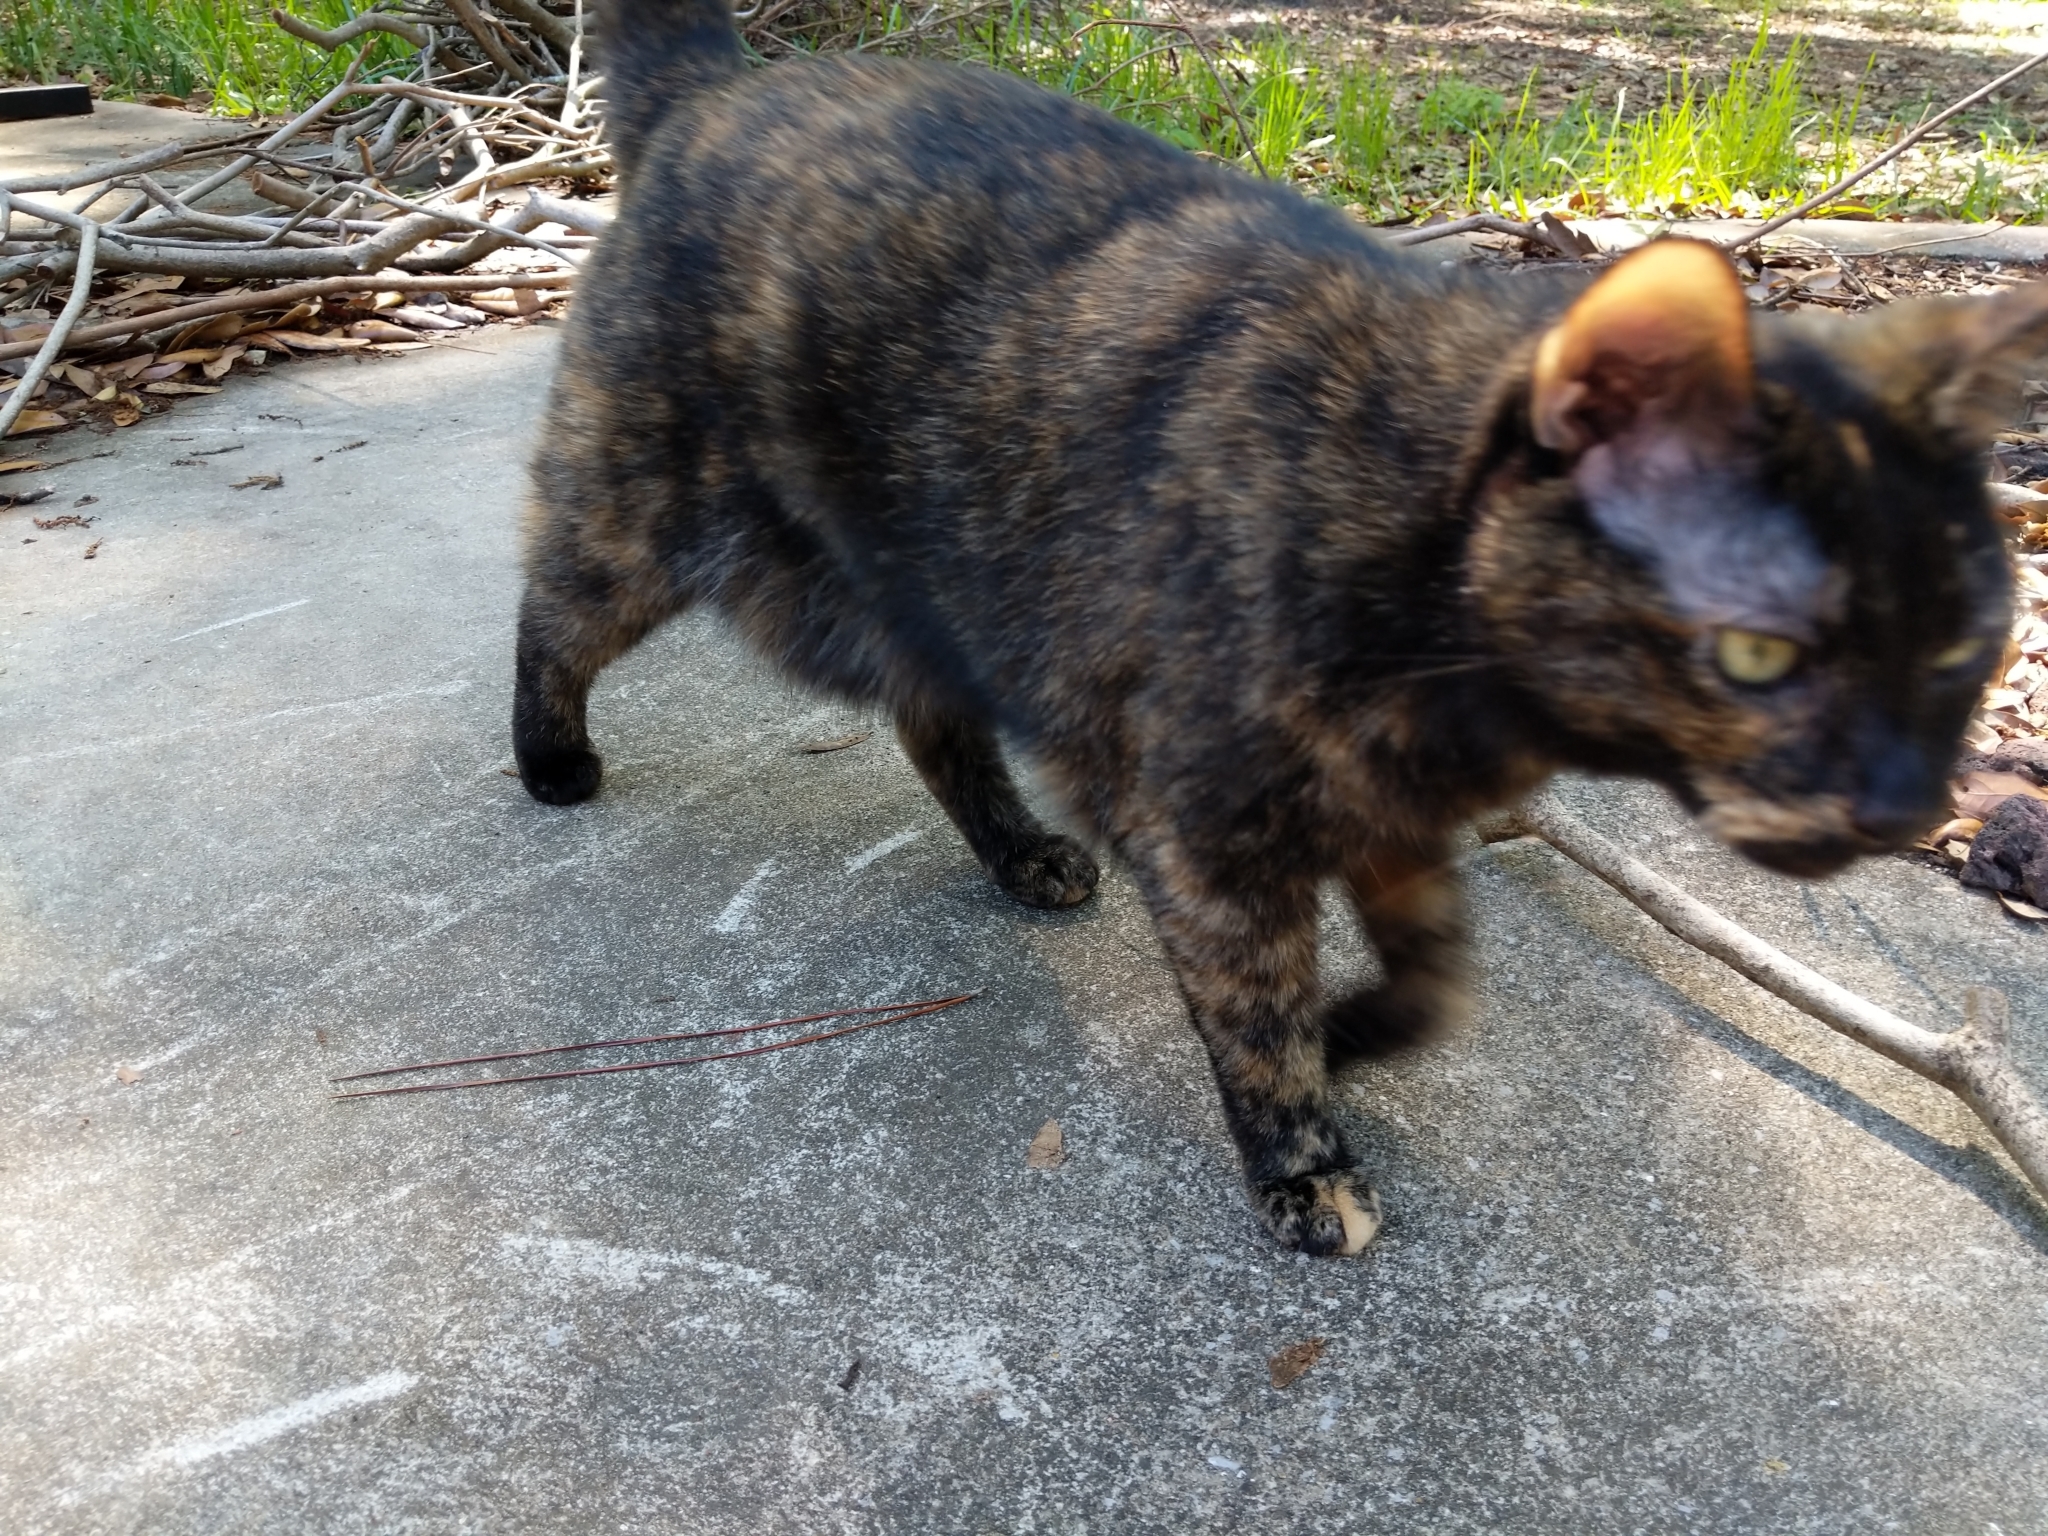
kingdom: Animalia
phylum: Chordata
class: Mammalia
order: Carnivora
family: Felidae
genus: Felis
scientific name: Felis catus
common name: Domestic cat
